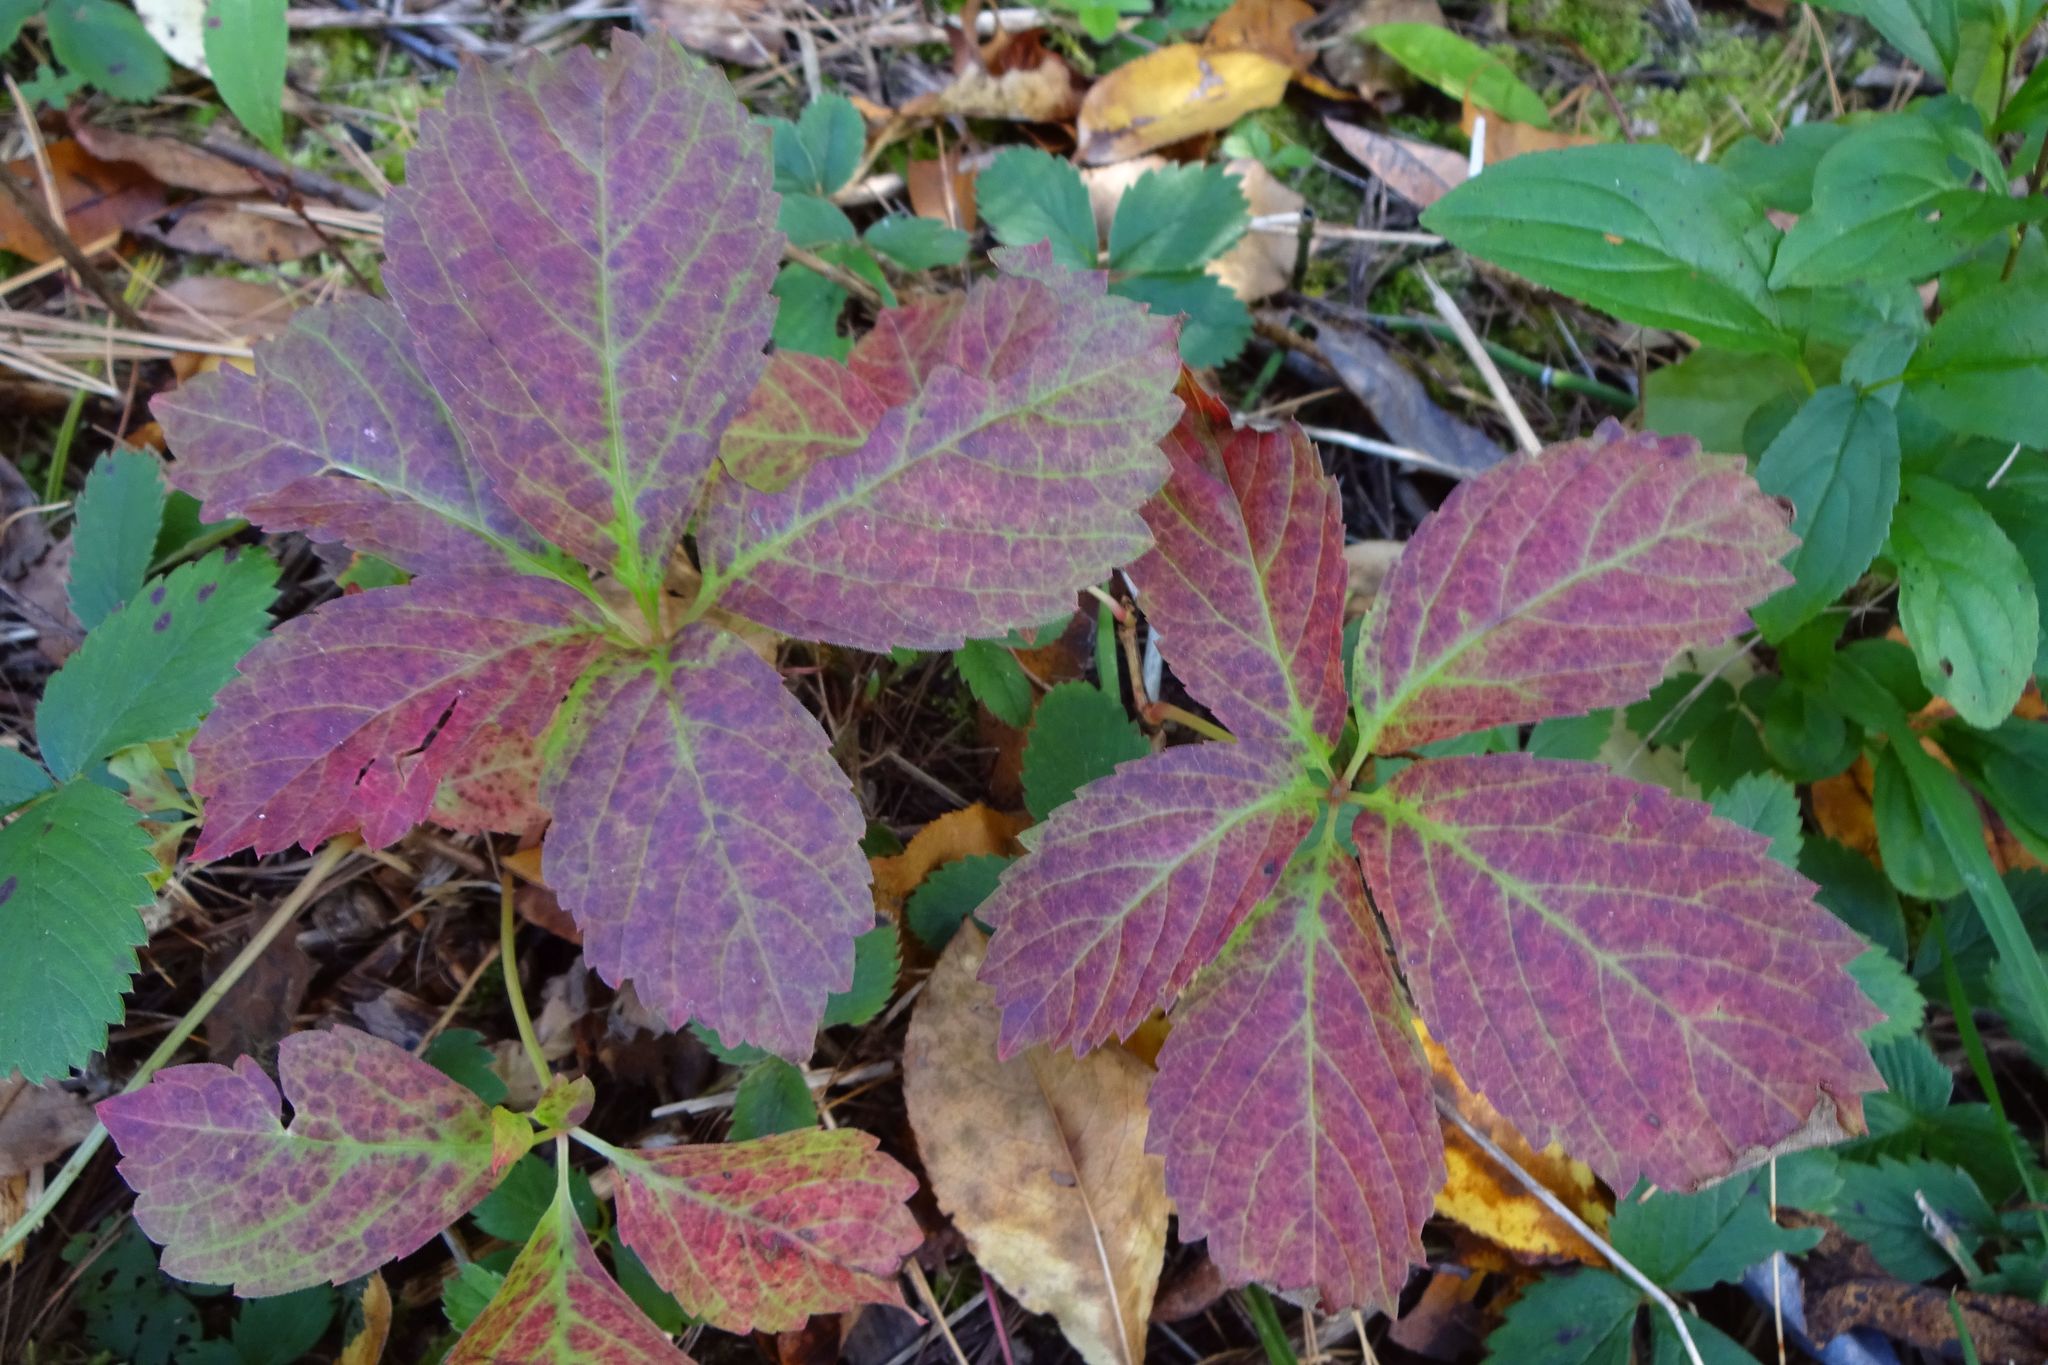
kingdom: Plantae
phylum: Tracheophyta
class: Magnoliopsida
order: Vitales
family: Vitaceae
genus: Parthenocissus
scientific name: Parthenocissus quinquefolia
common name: Virginia-creeper
